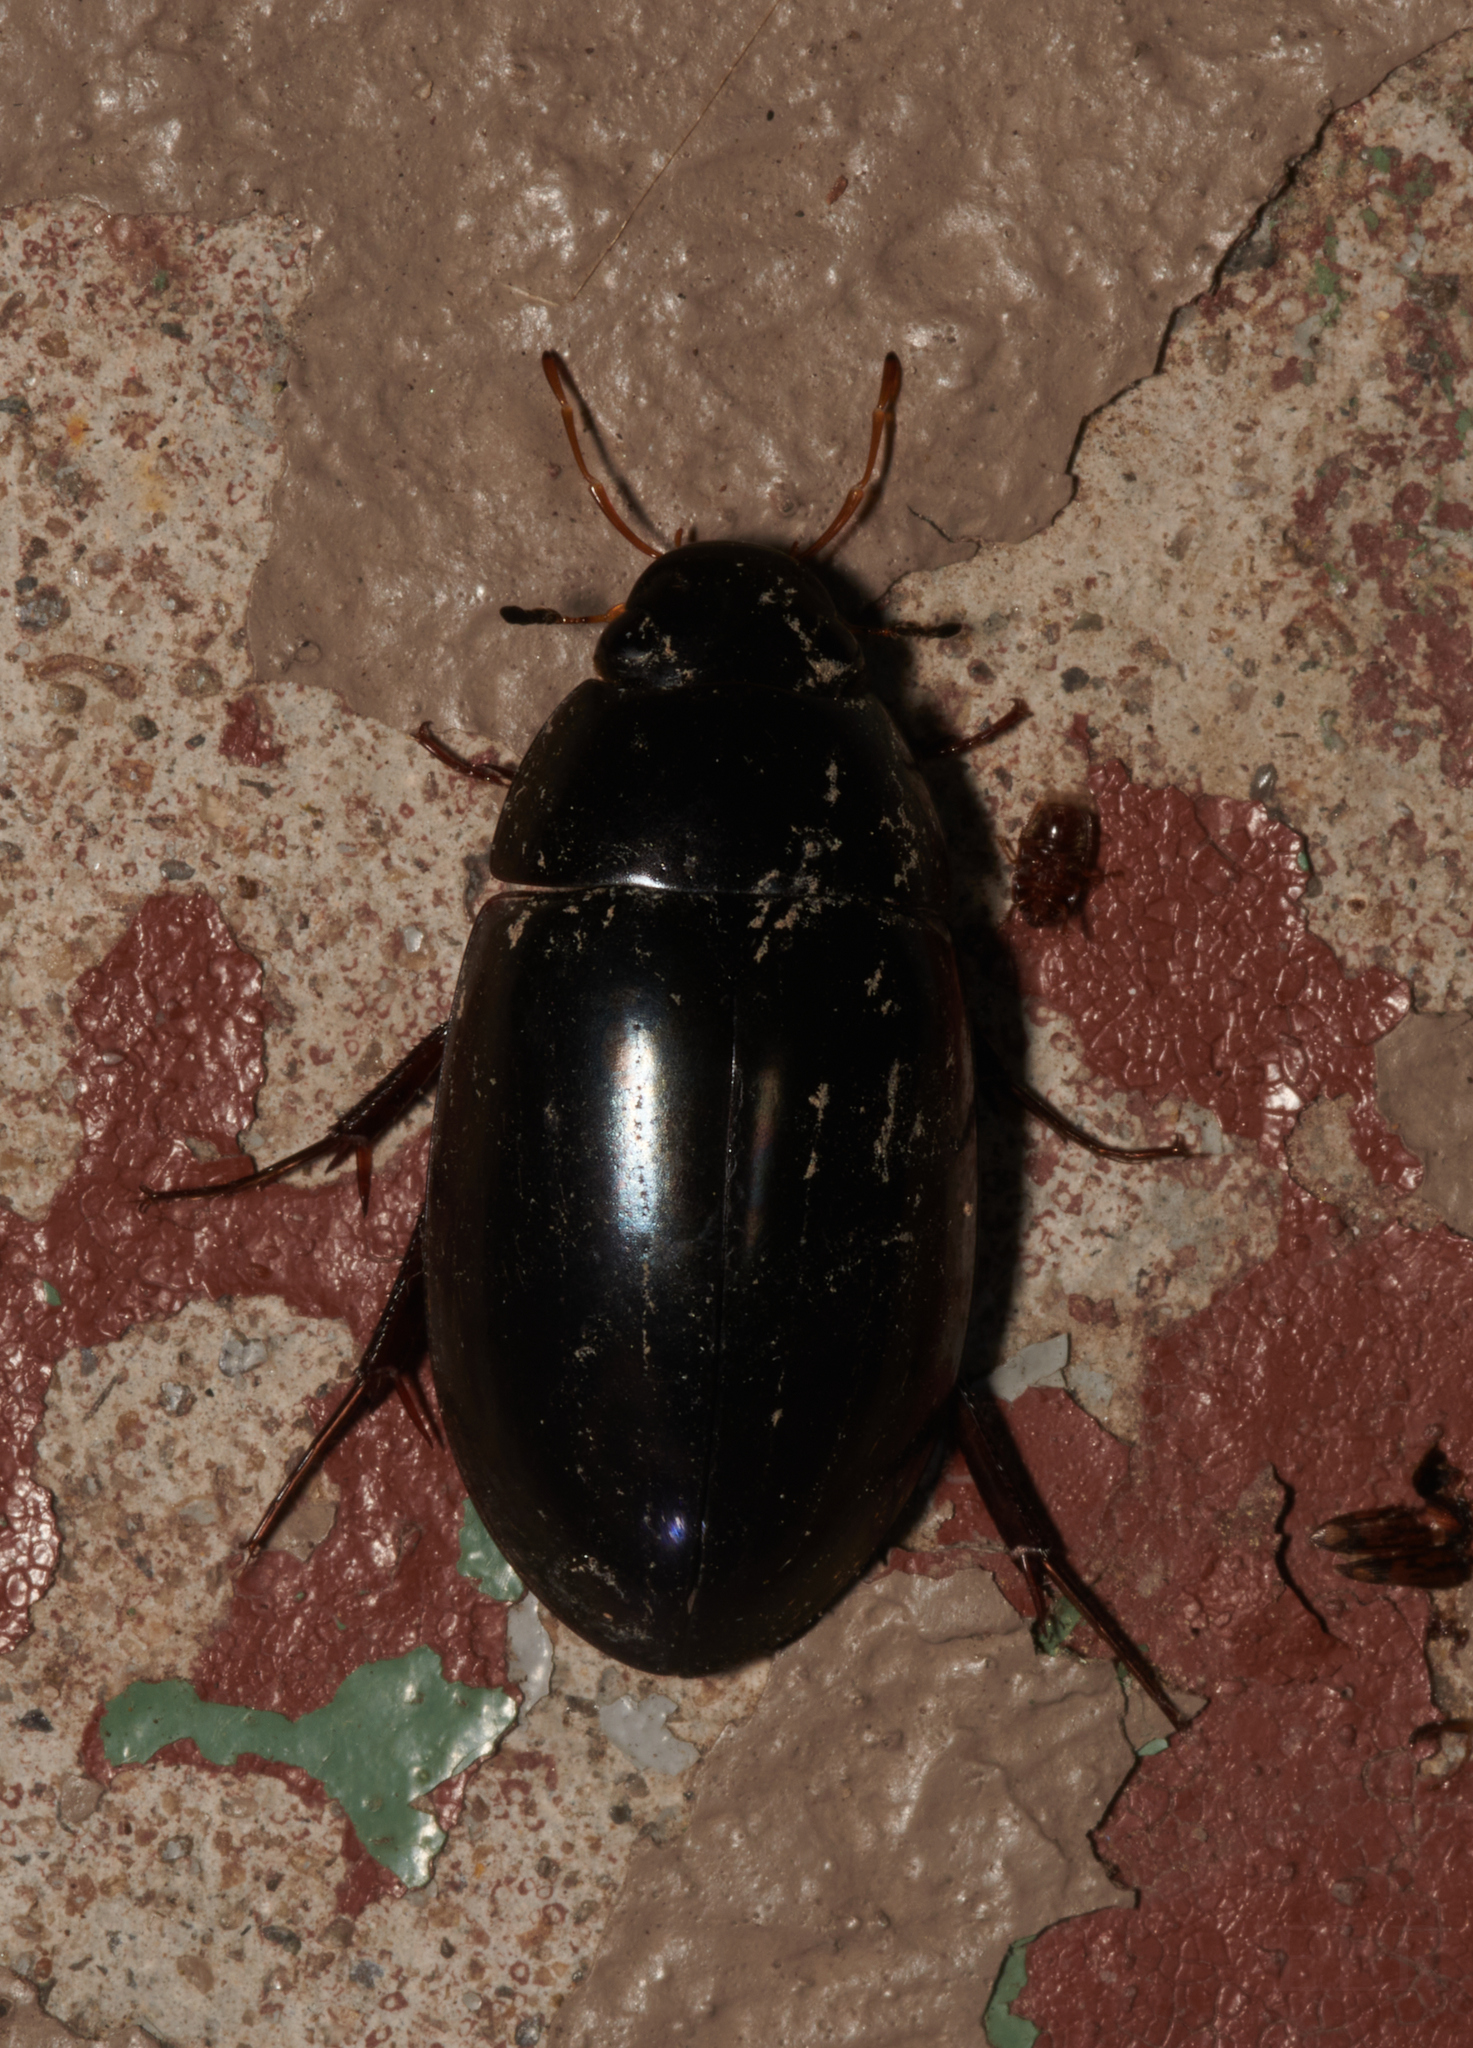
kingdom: Animalia
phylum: Arthropoda
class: Insecta
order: Coleoptera
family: Hydrophilidae
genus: Hydrochara
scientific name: Hydrochara
